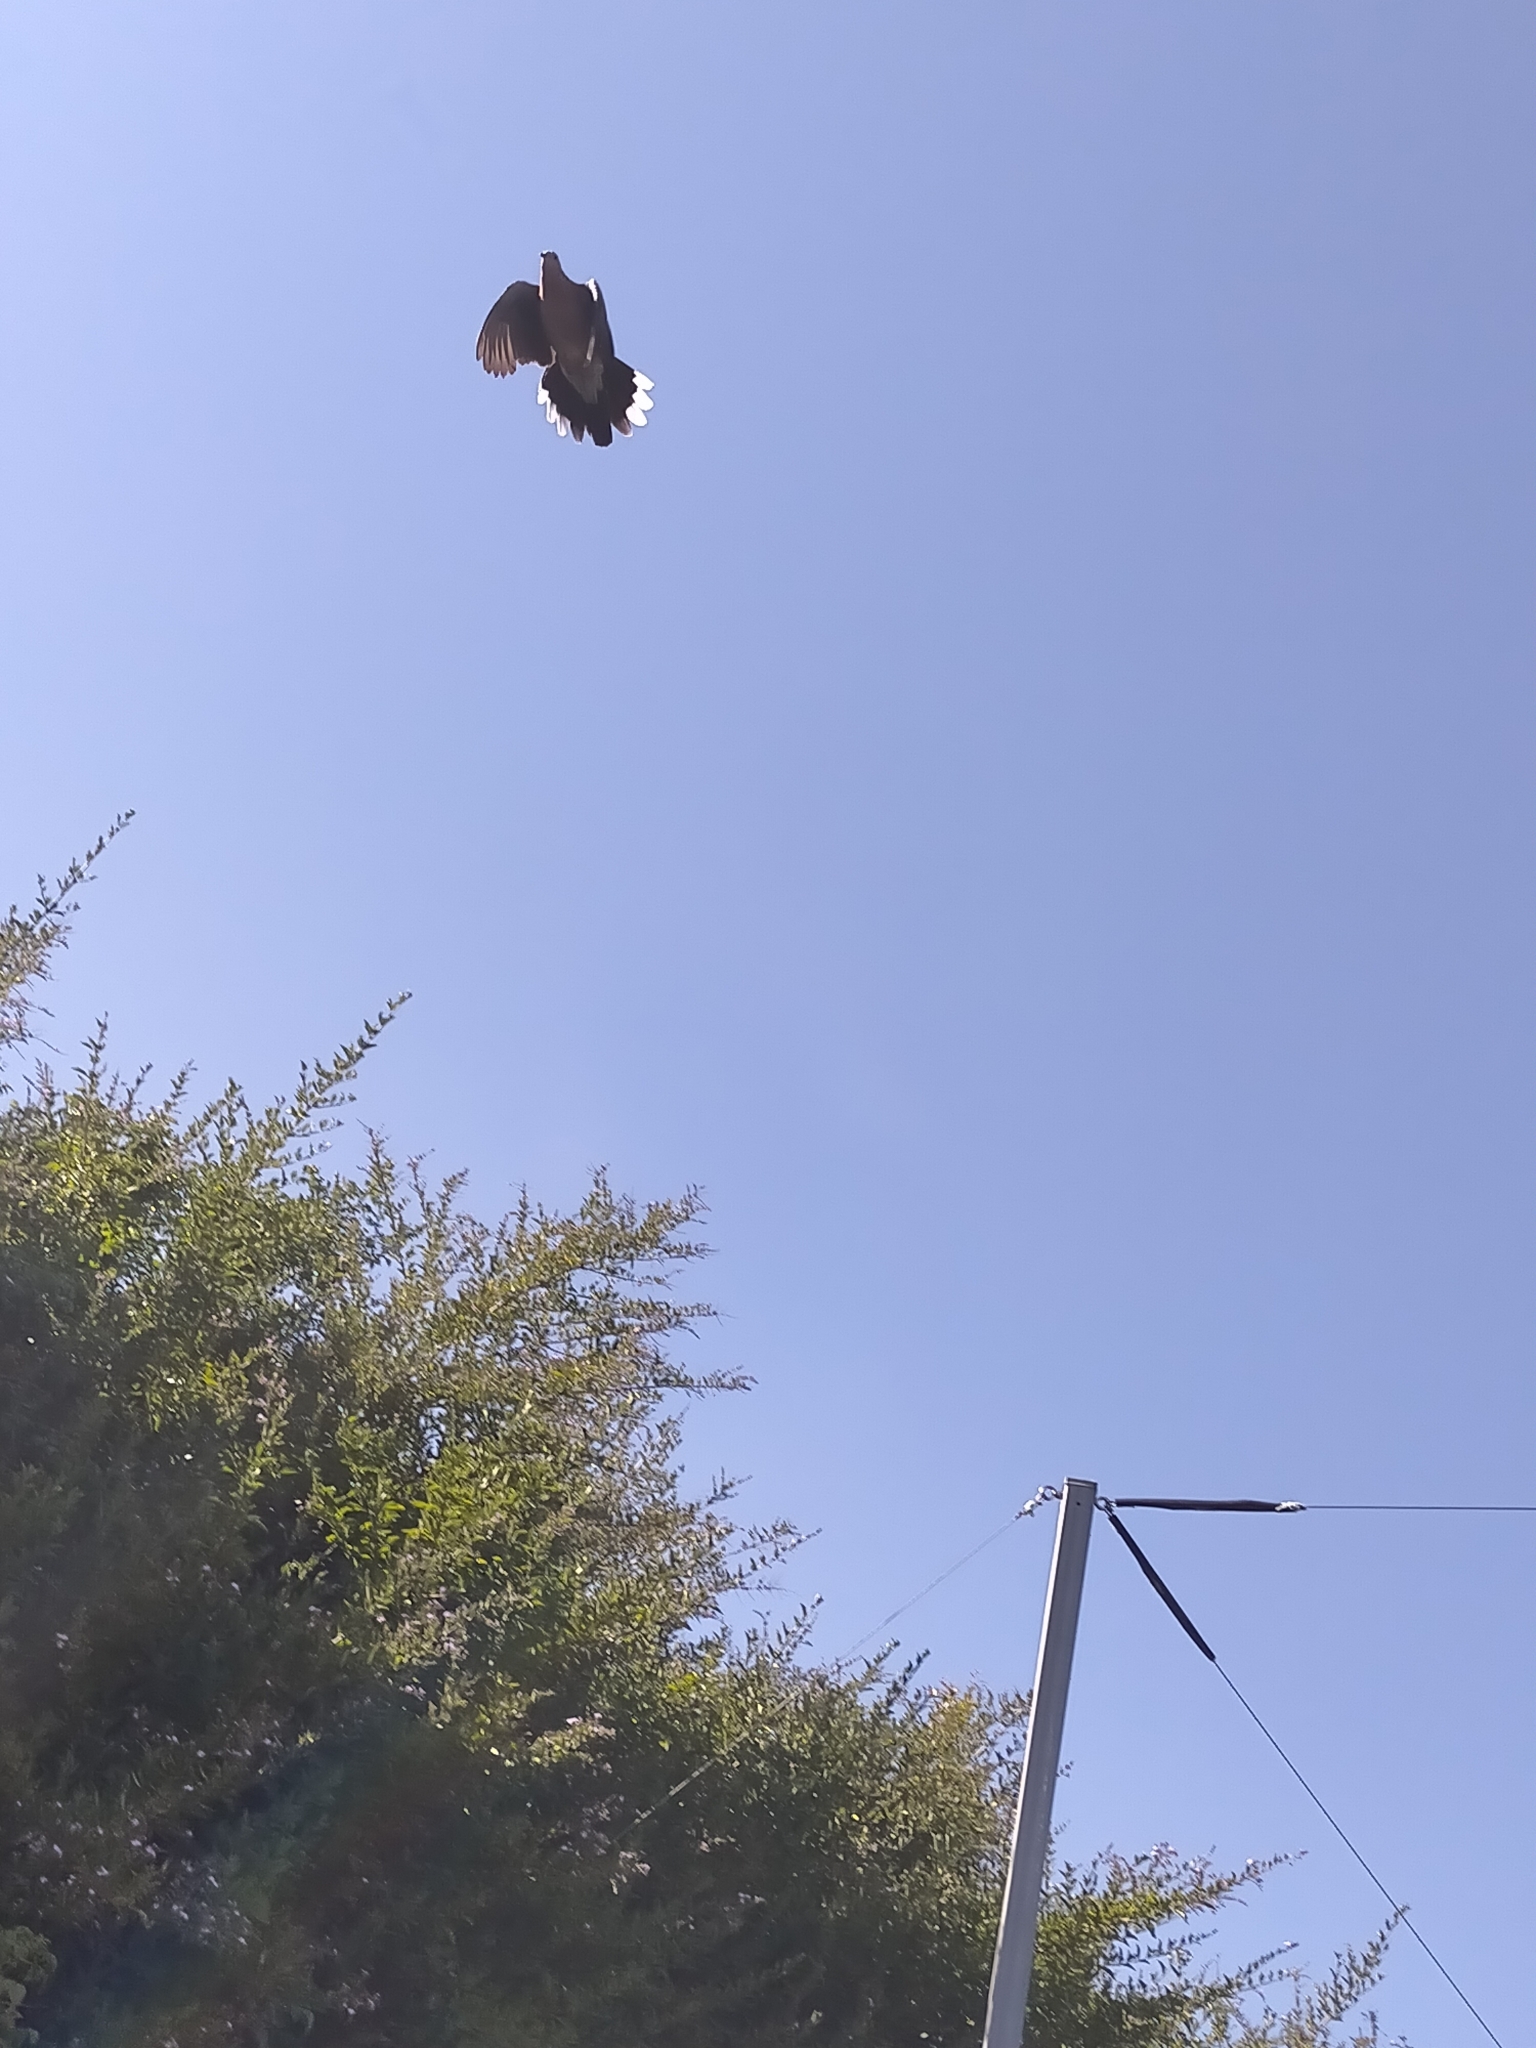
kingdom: Animalia
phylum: Chordata
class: Aves
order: Columbiformes
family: Columbidae
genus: Spilopelia
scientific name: Spilopelia chinensis
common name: Spotted dove
